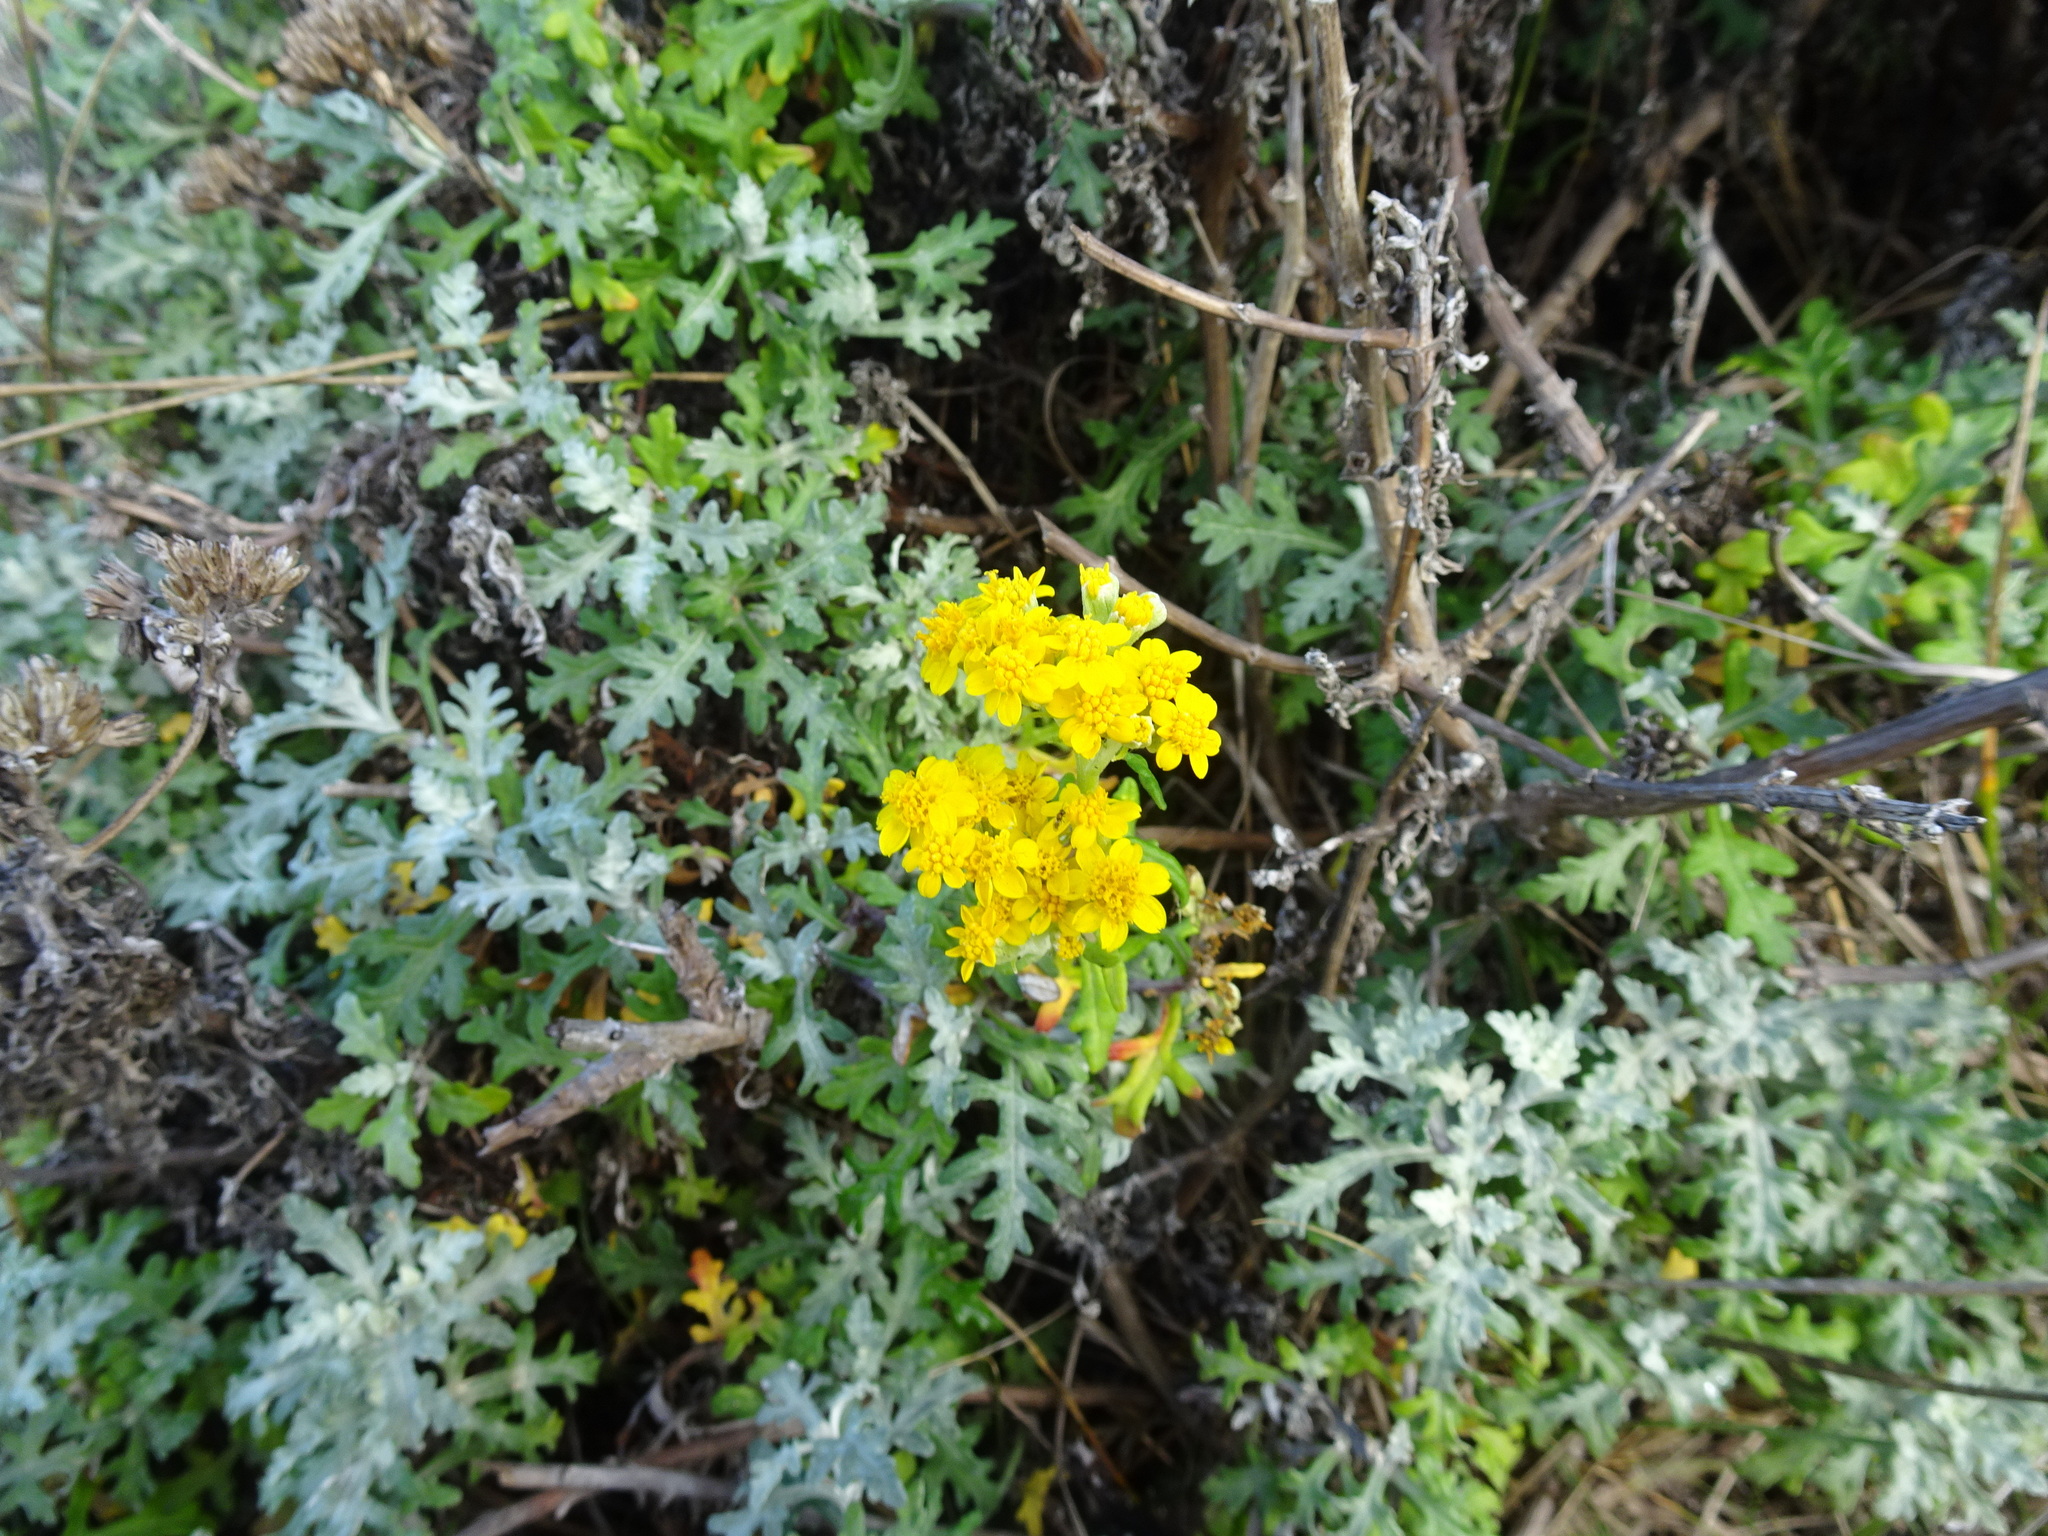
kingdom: Plantae
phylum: Tracheophyta
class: Magnoliopsida
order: Asterales
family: Asteraceae
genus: Eriophyllum
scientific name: Eriophyllum staechadifolium
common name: Lizardtail
